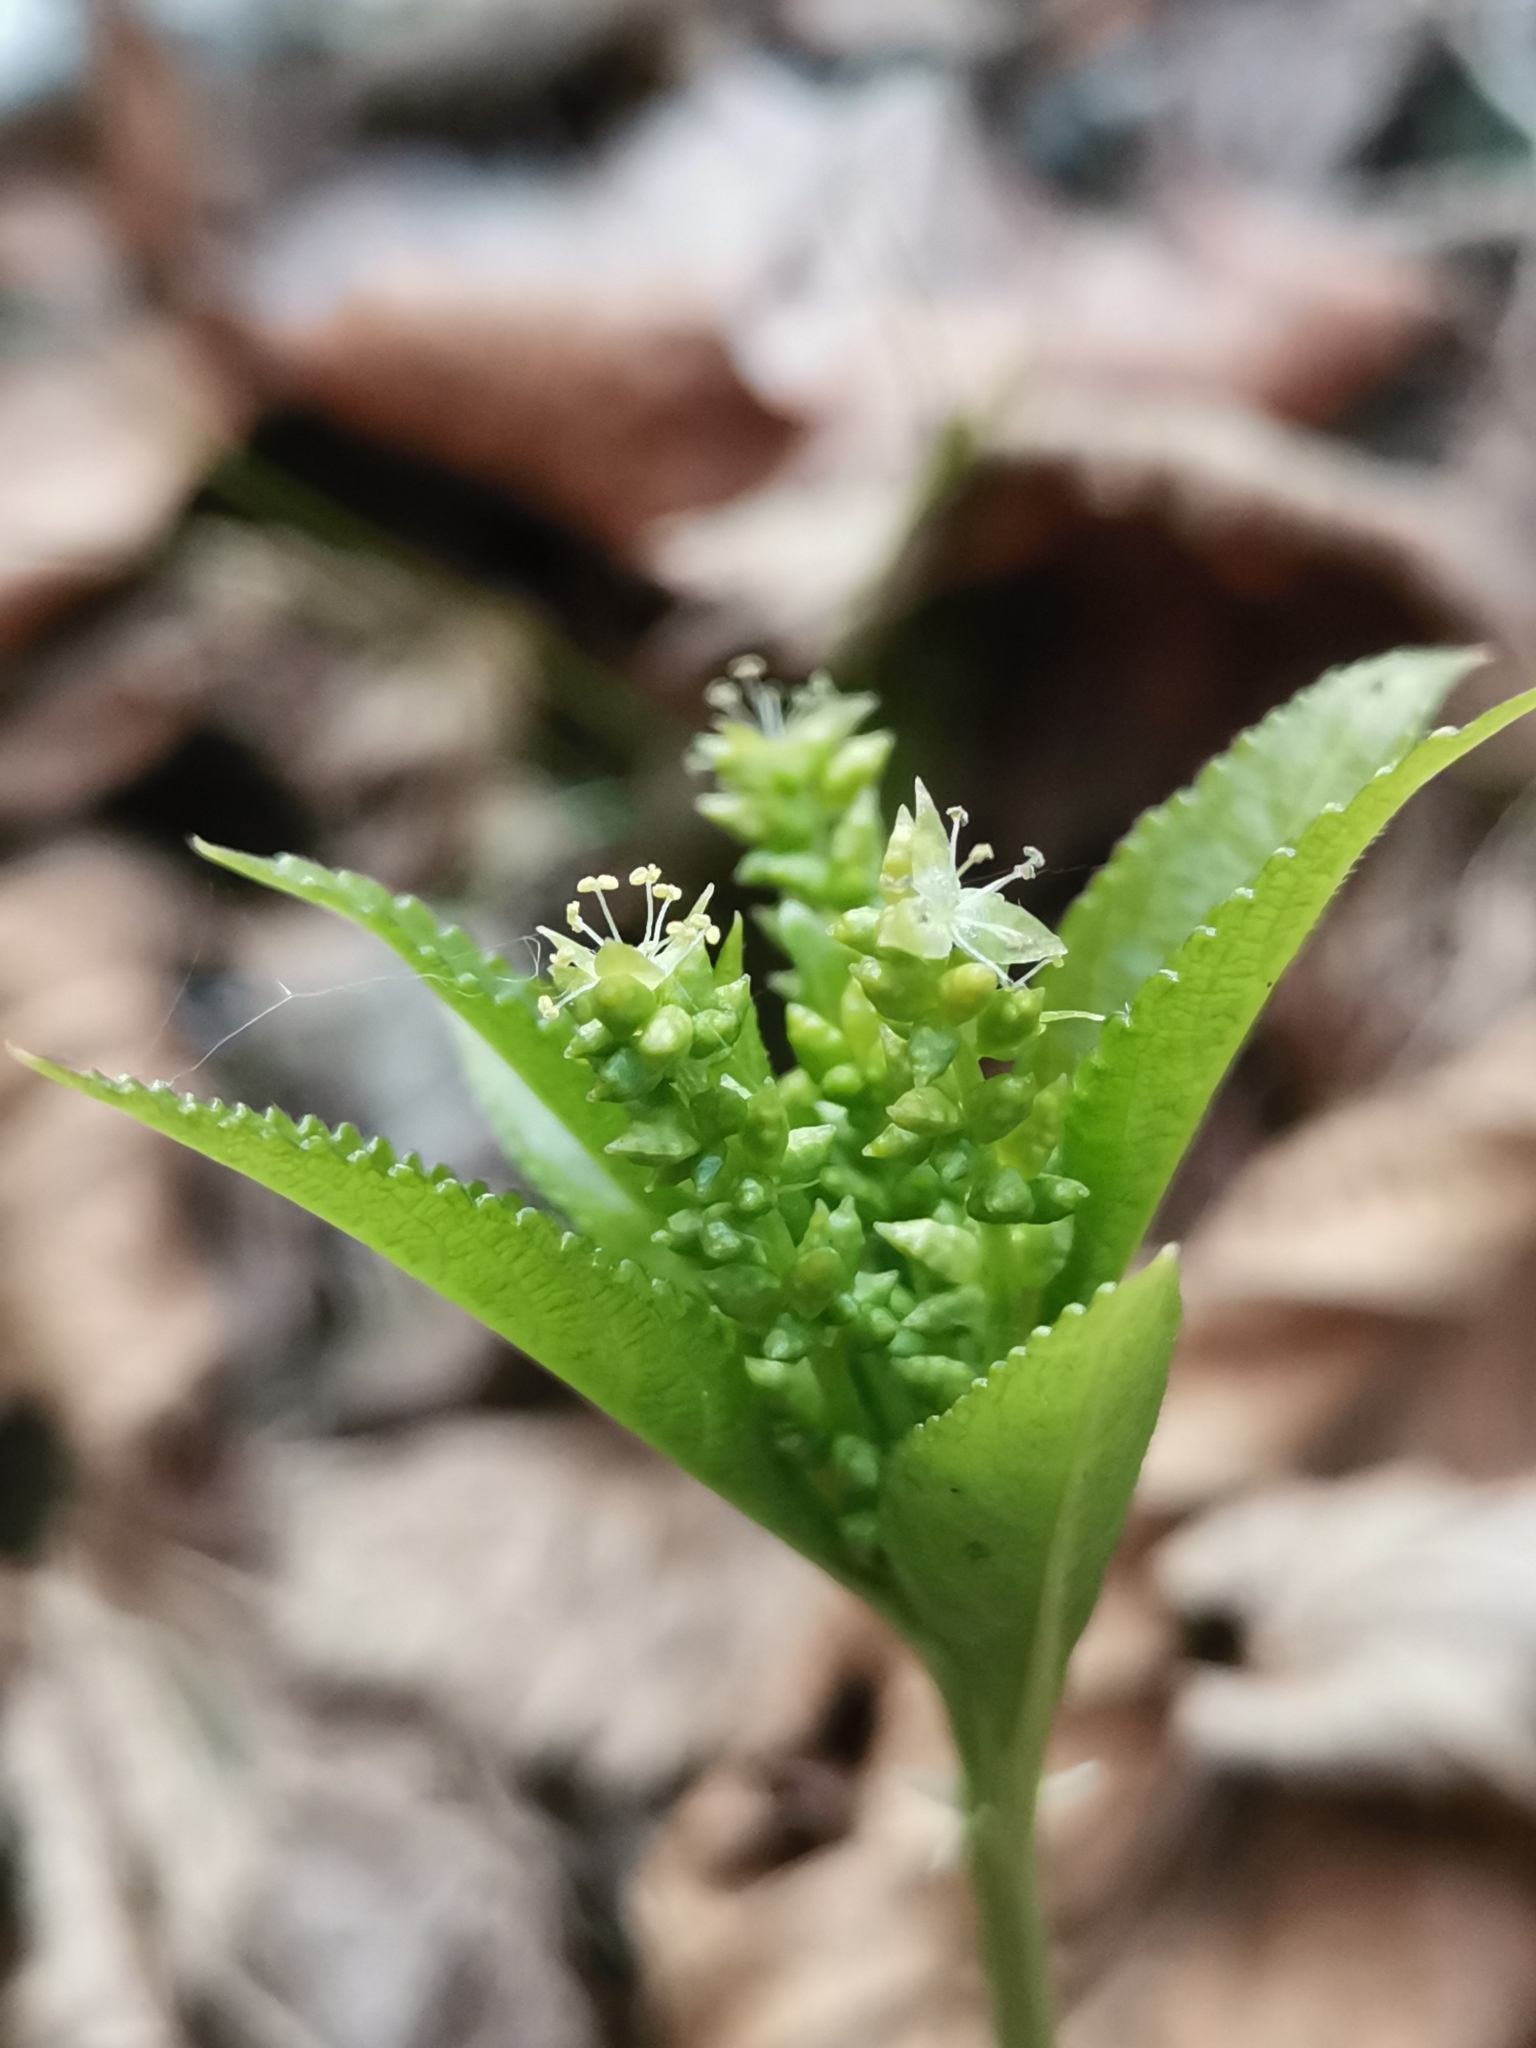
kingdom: Plantae
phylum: Tracheophyta
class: Magnoliopsida
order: Malpighiales
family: Euphorbiaceae
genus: Mercurialis
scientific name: Mercurialis perennis
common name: Dog mercury
